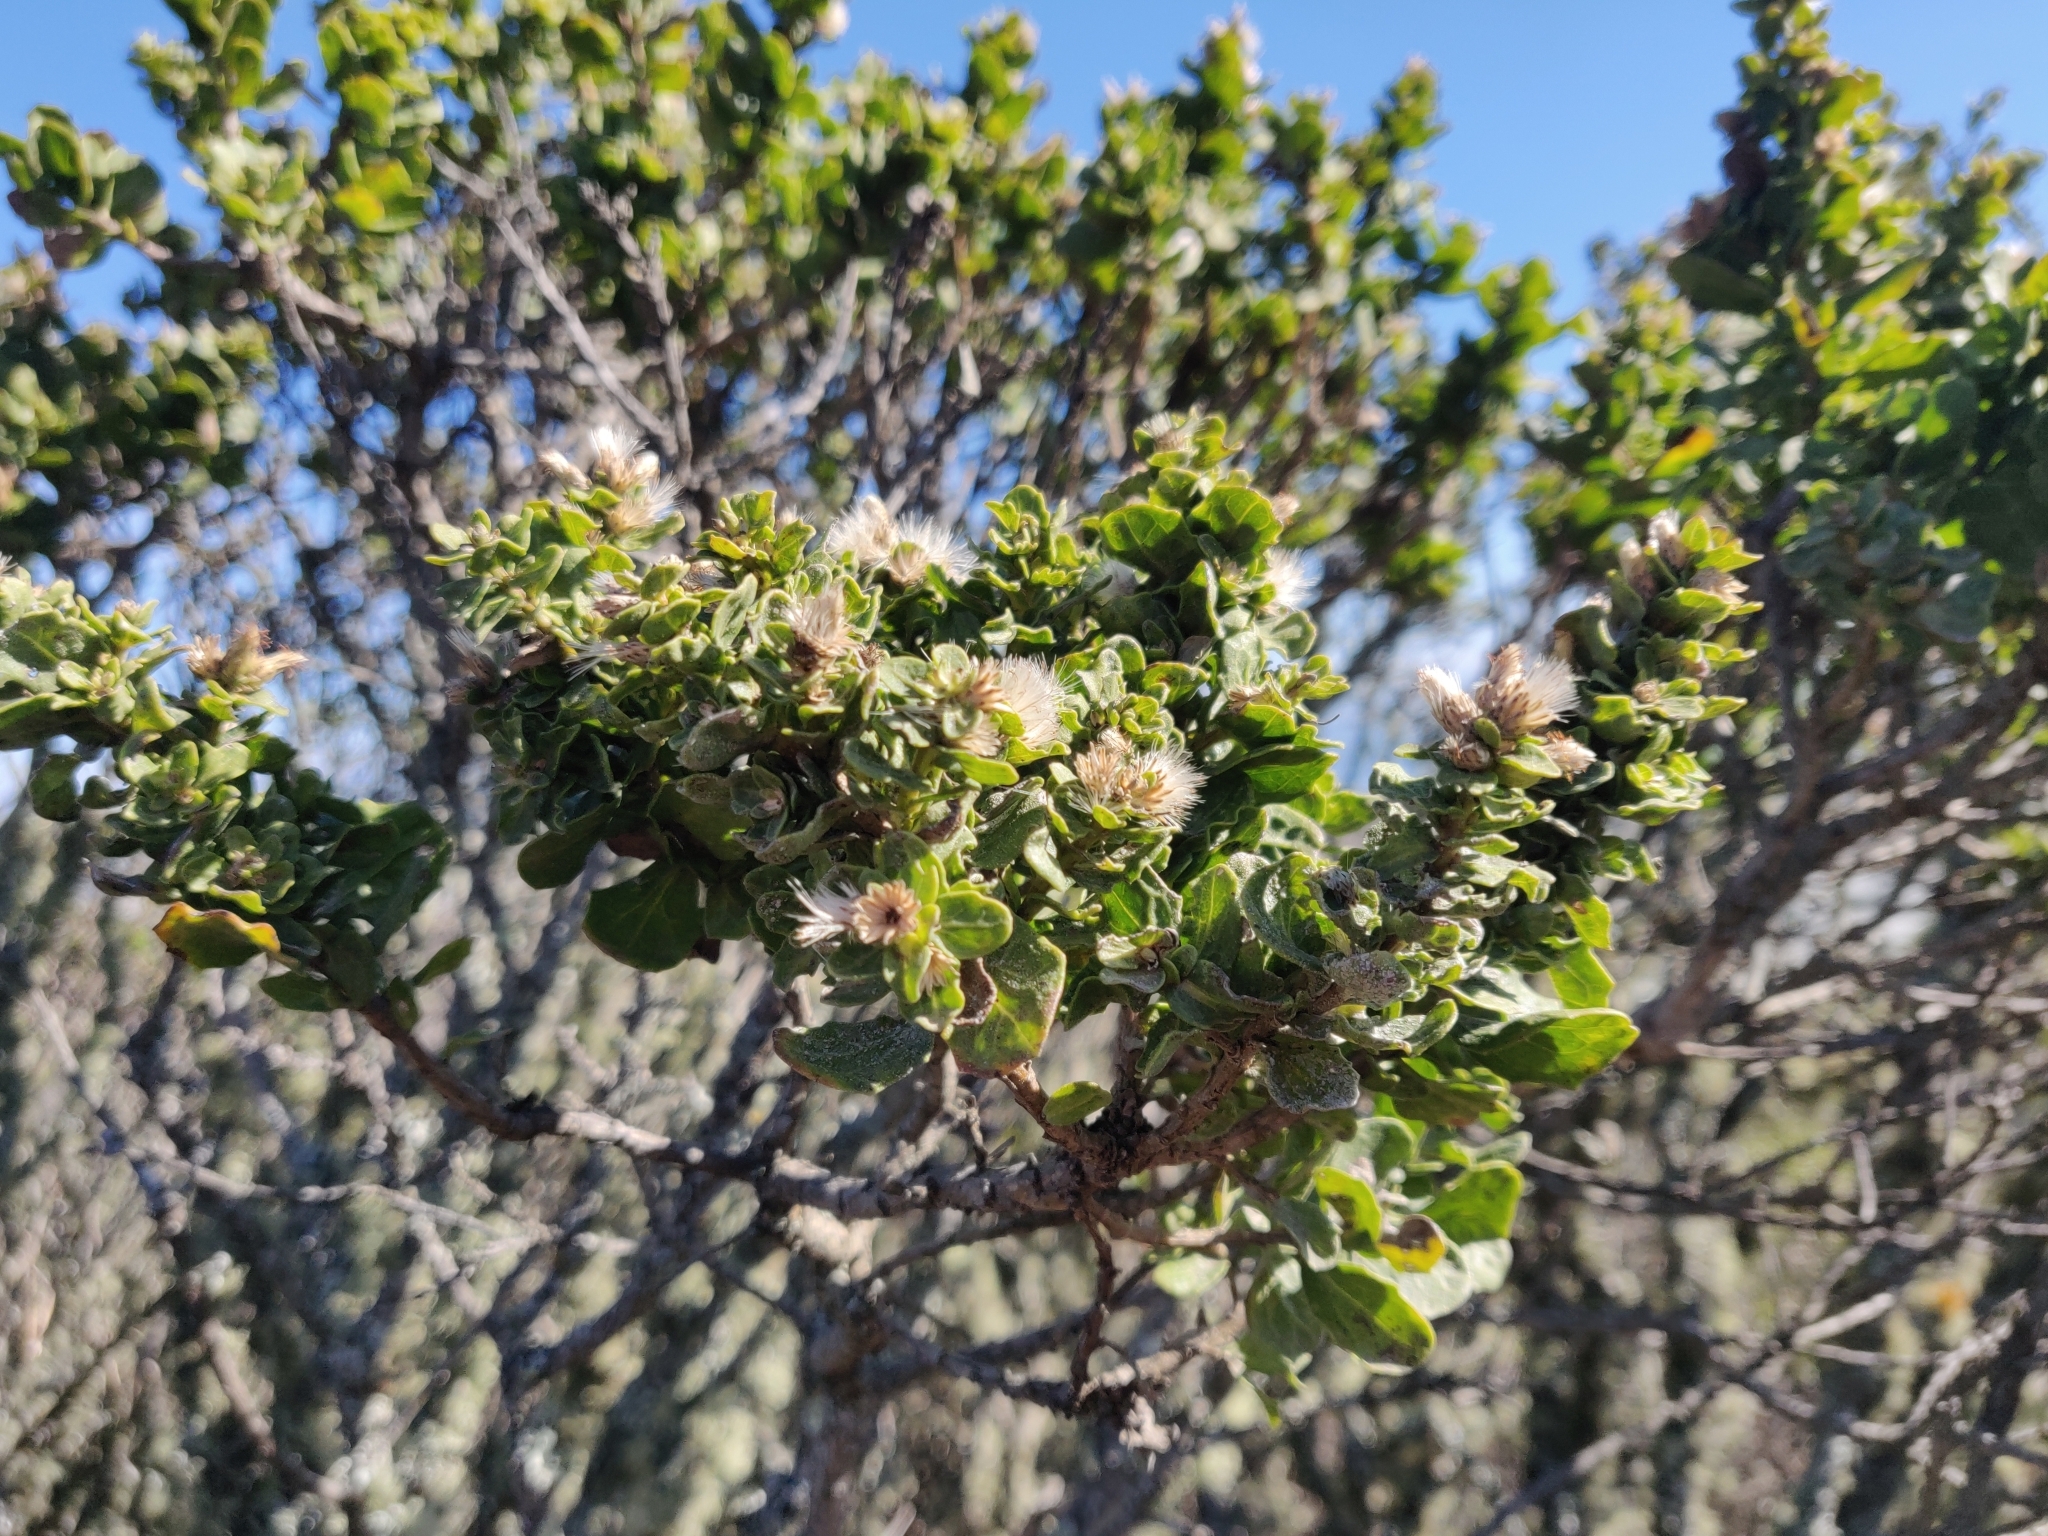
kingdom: Plantae
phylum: Tracheophyta
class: Magnoliopsida
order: Asterales
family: Asteraceae
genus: Baccharis
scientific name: Baccharis pilularis
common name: Coyotebrush
